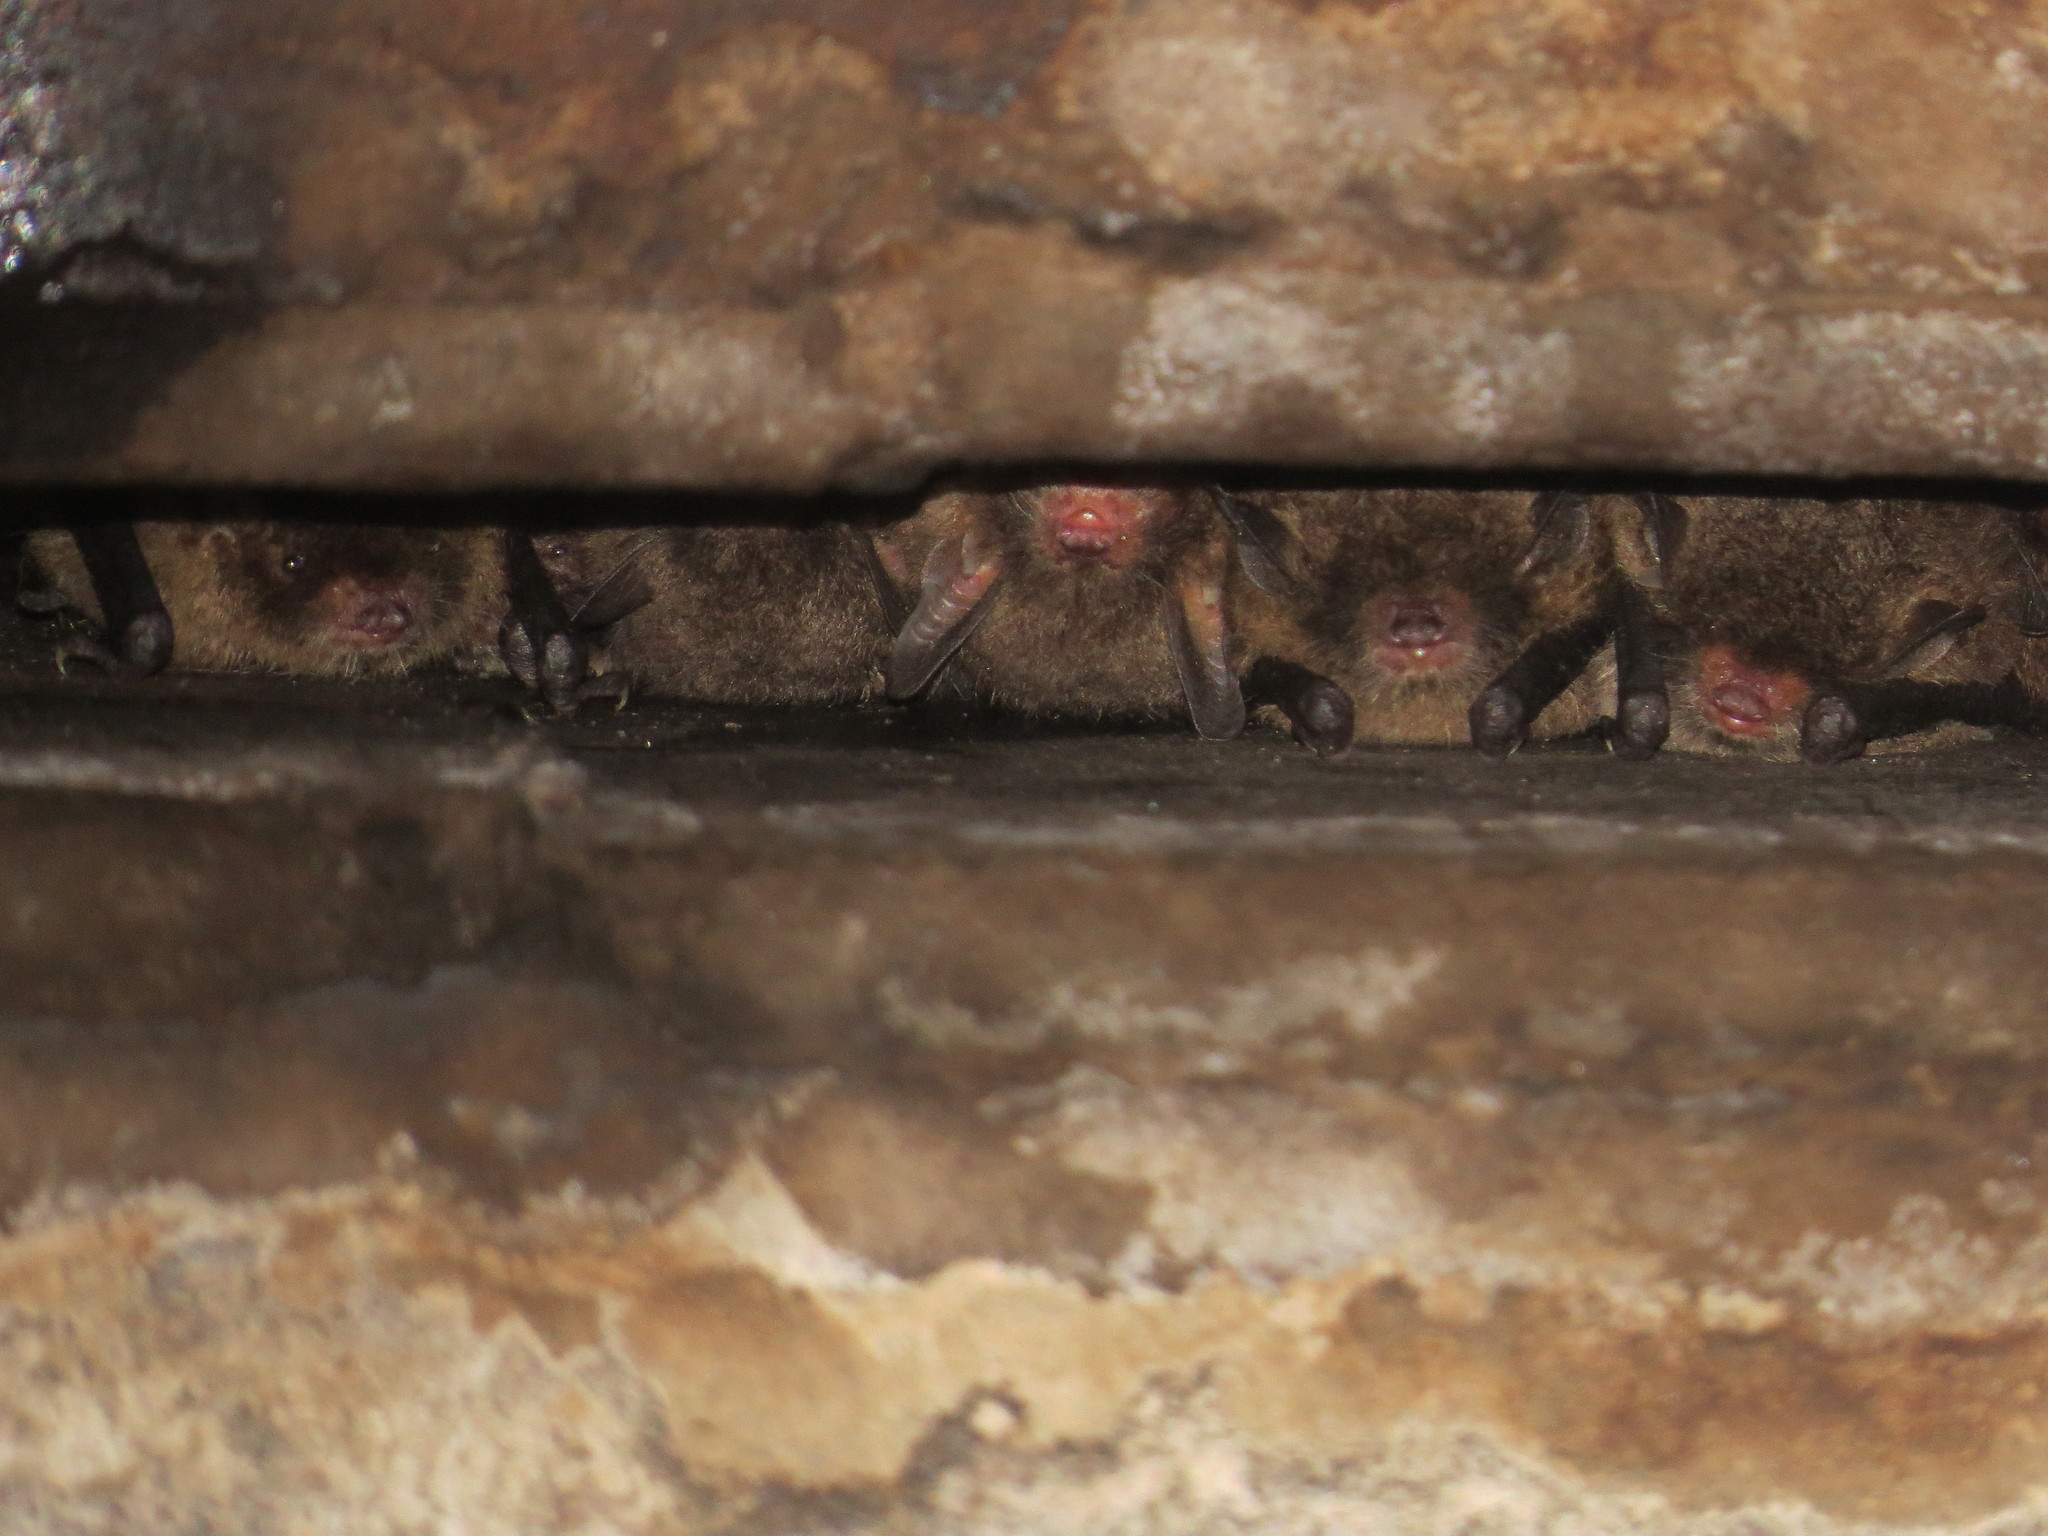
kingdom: Animalia
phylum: Chordata
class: Mammalia
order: Chiroptera
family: Vespertilionidae
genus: Myotis
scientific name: Myotis martiniquensis
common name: Schwartz's myotis
